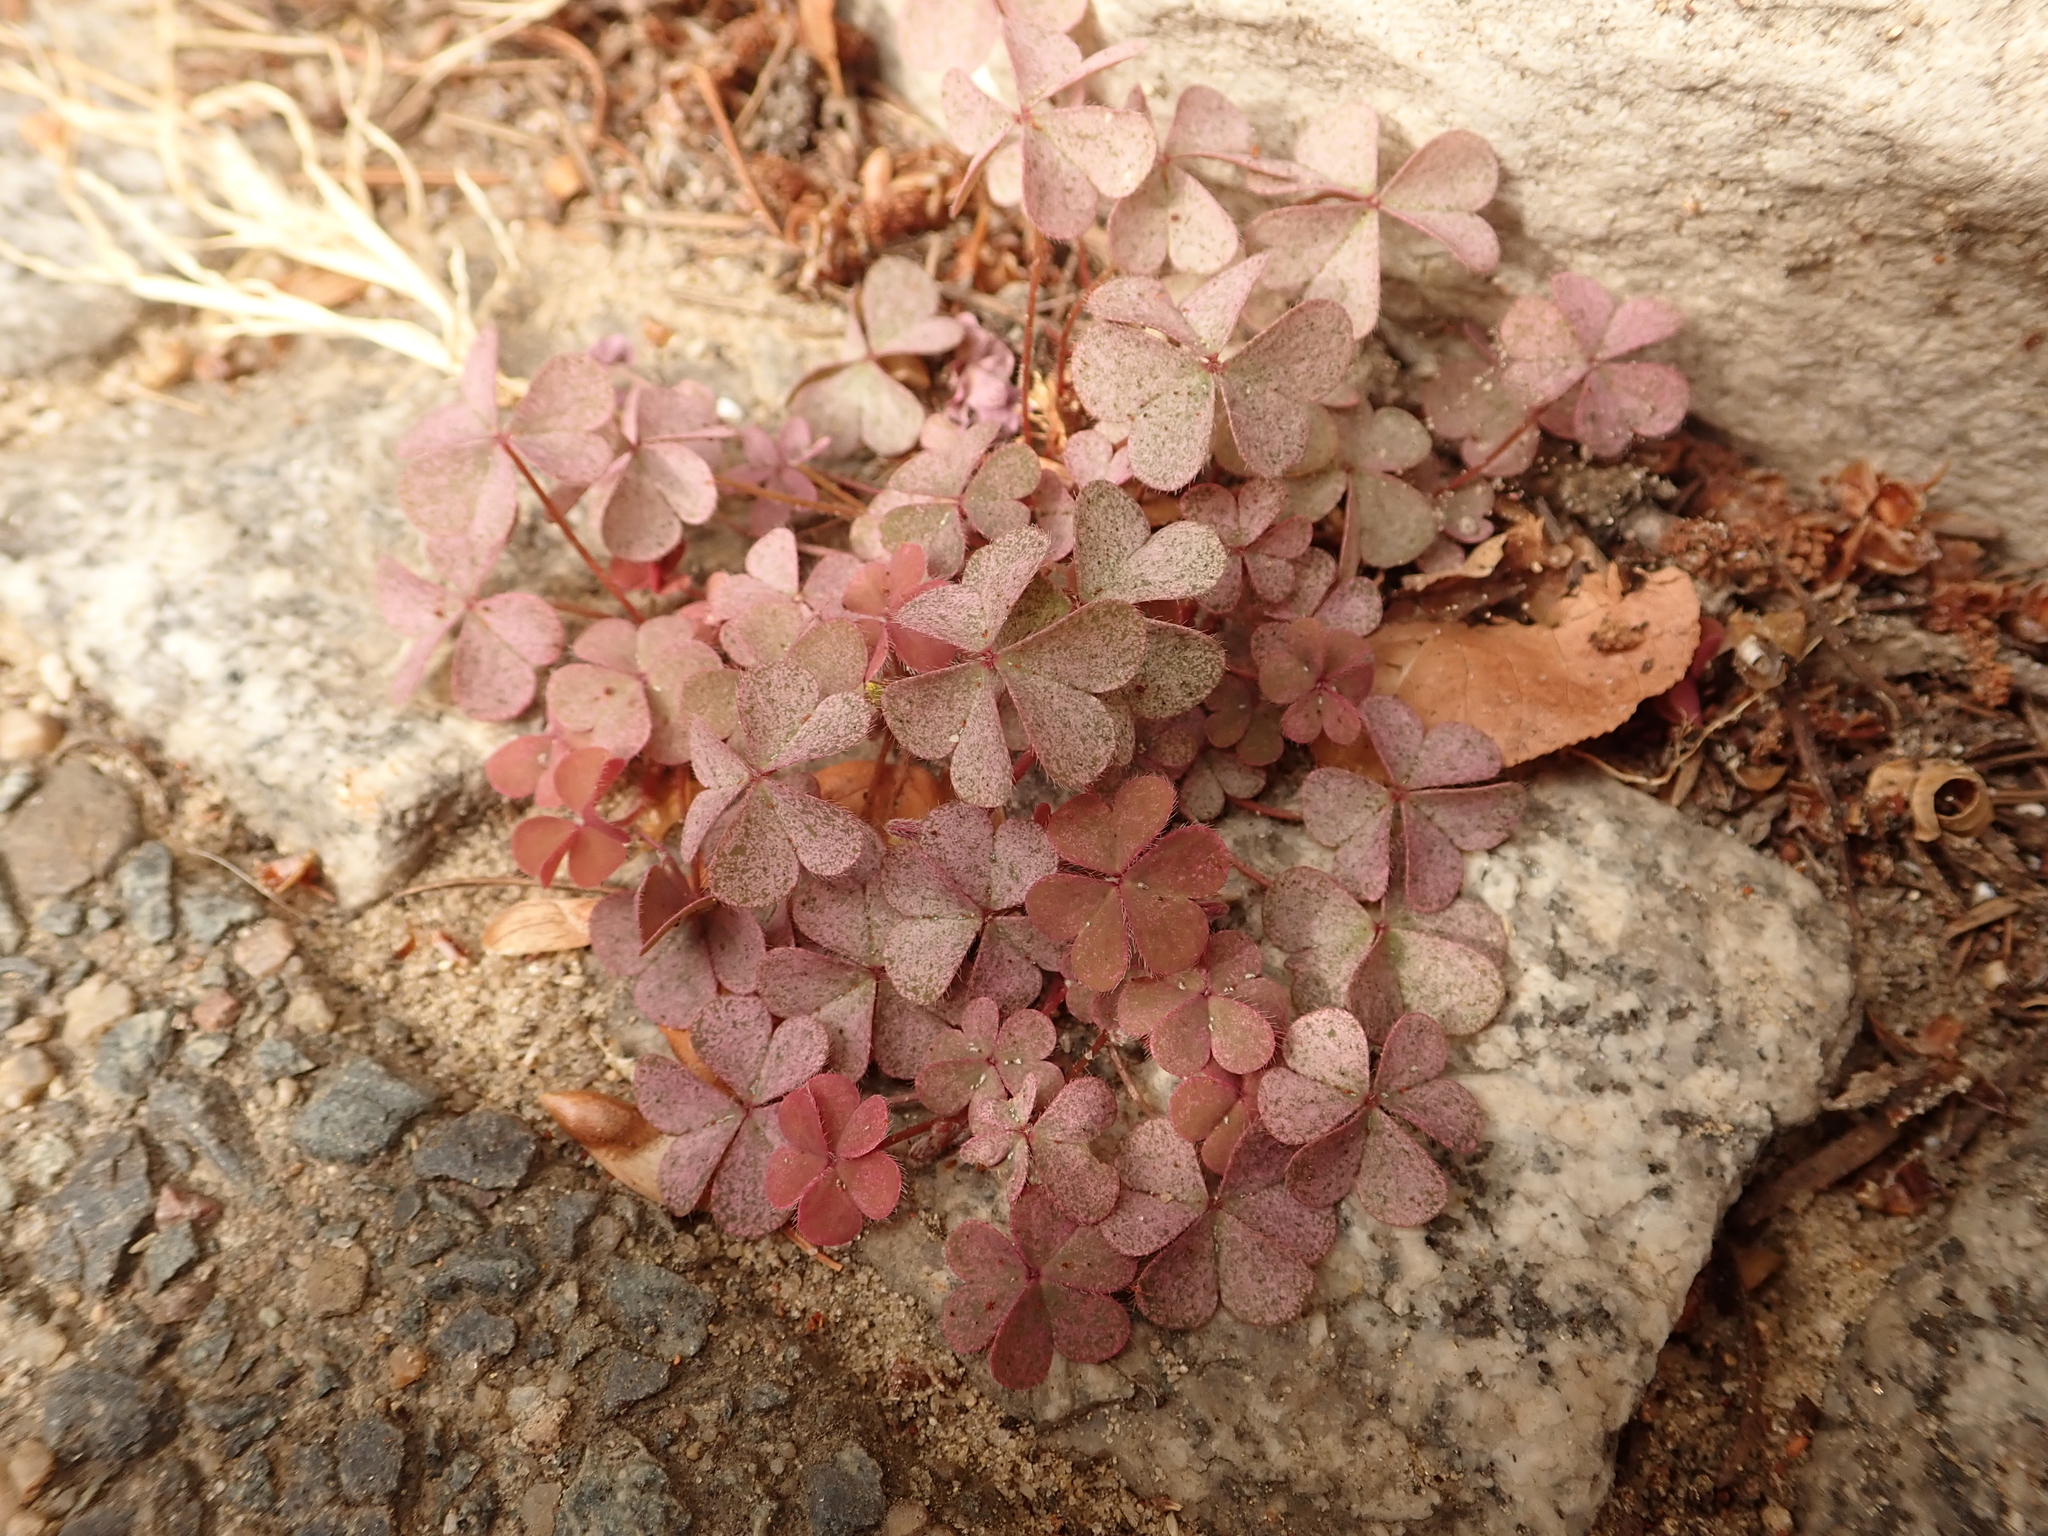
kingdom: Plantae
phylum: Tracheophyta
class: Magnoliopsida
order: Oxalidales
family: Oxalidaceae
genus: Oxalis
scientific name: Oxalis corniculata
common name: Procumbent yellow-sorrel
